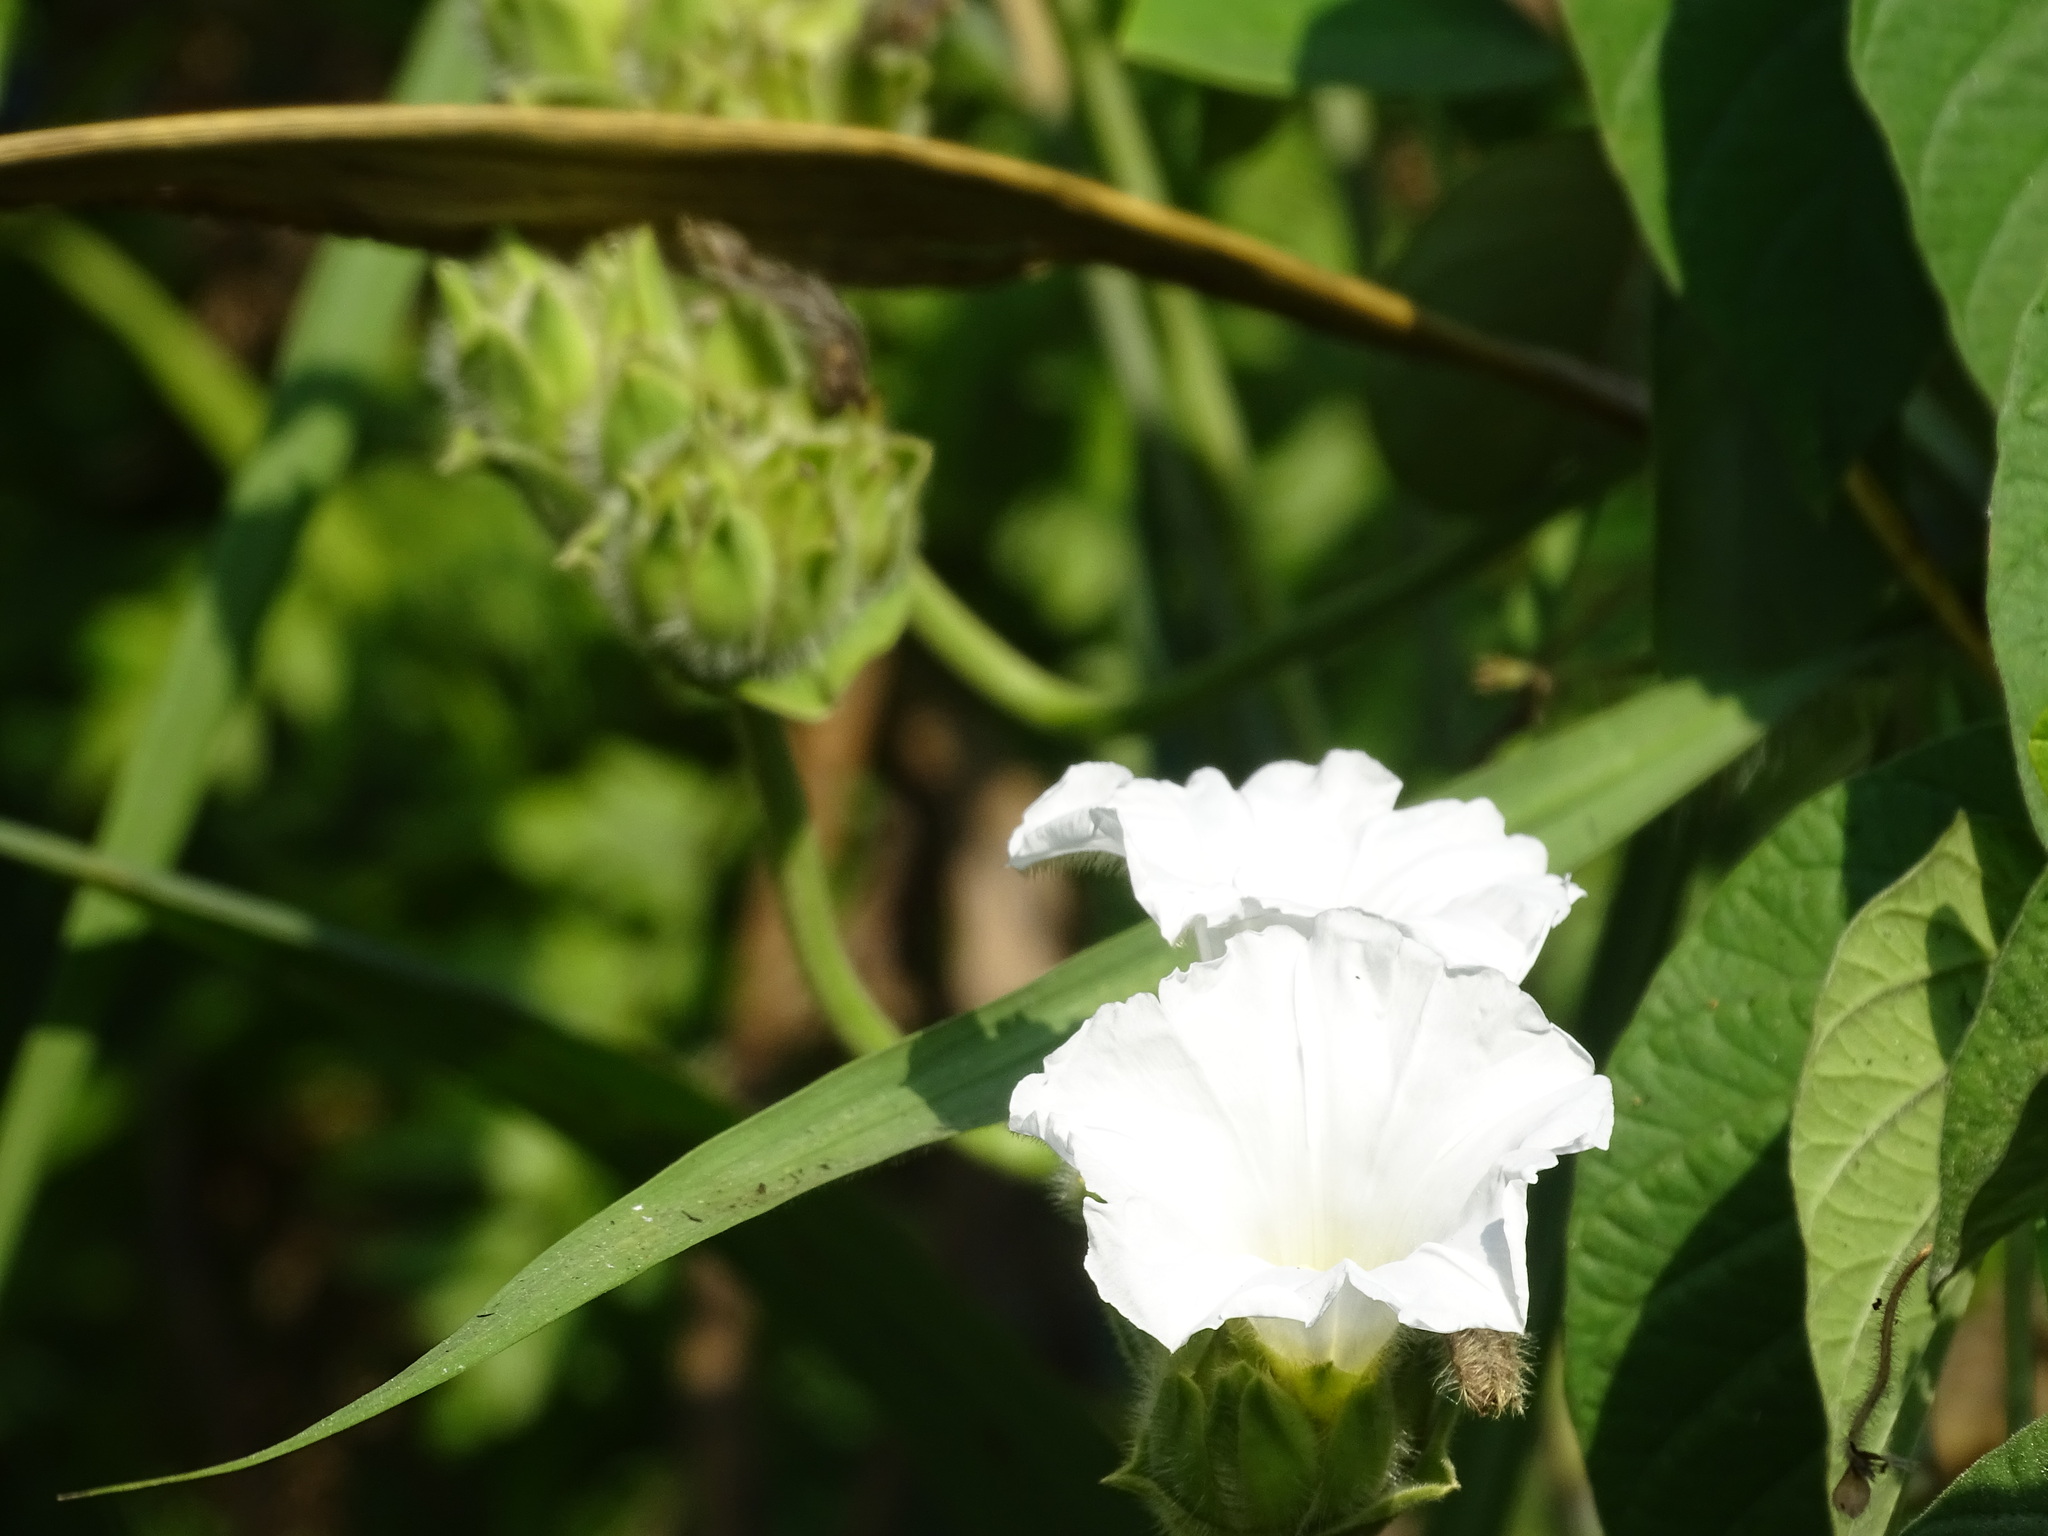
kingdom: Plantae
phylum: Tracheophyta
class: Magnoliopsida
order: Solanales
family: Convolvulaceae
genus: Odonellia
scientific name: Odonellia hirtiflora
